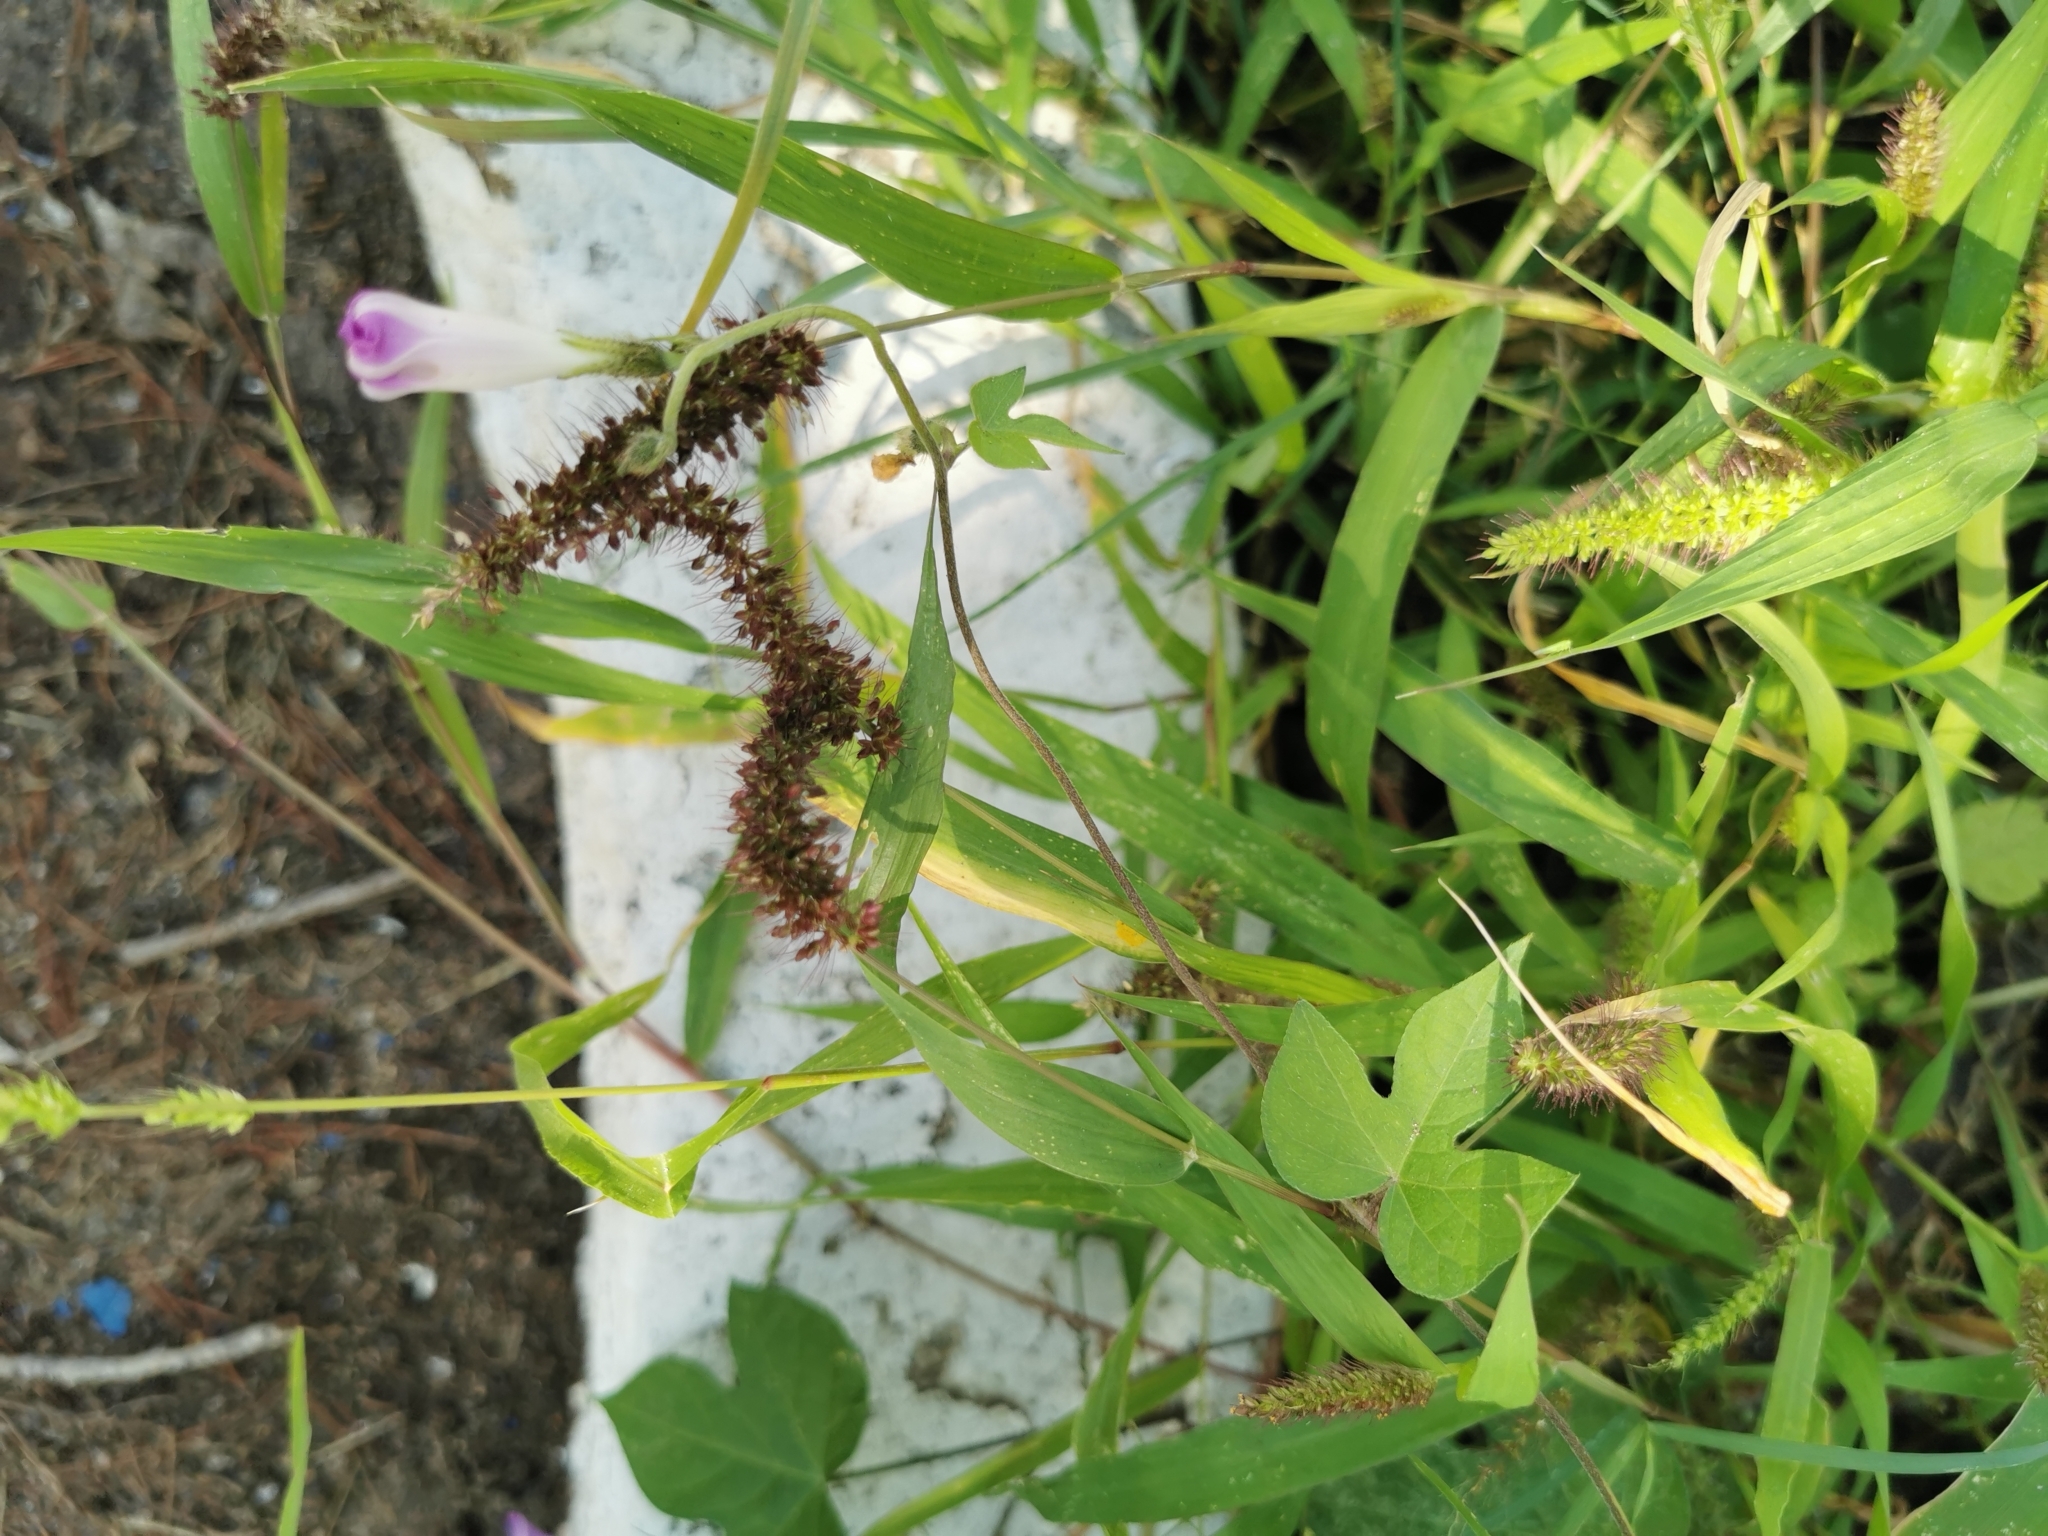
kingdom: Plantae
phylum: Tracheophyta
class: Liliopsida
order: Poales
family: Poaceae
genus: Setaria
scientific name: Setaria macrostachya
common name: Plains bristle grass
